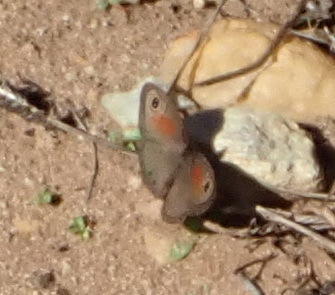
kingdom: Animalia
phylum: Arthropoda
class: Insecta
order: Lepidoptera
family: Nymphalidae
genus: Pseudonympha
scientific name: Pseudonympha magus
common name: Silver-bottom brown
